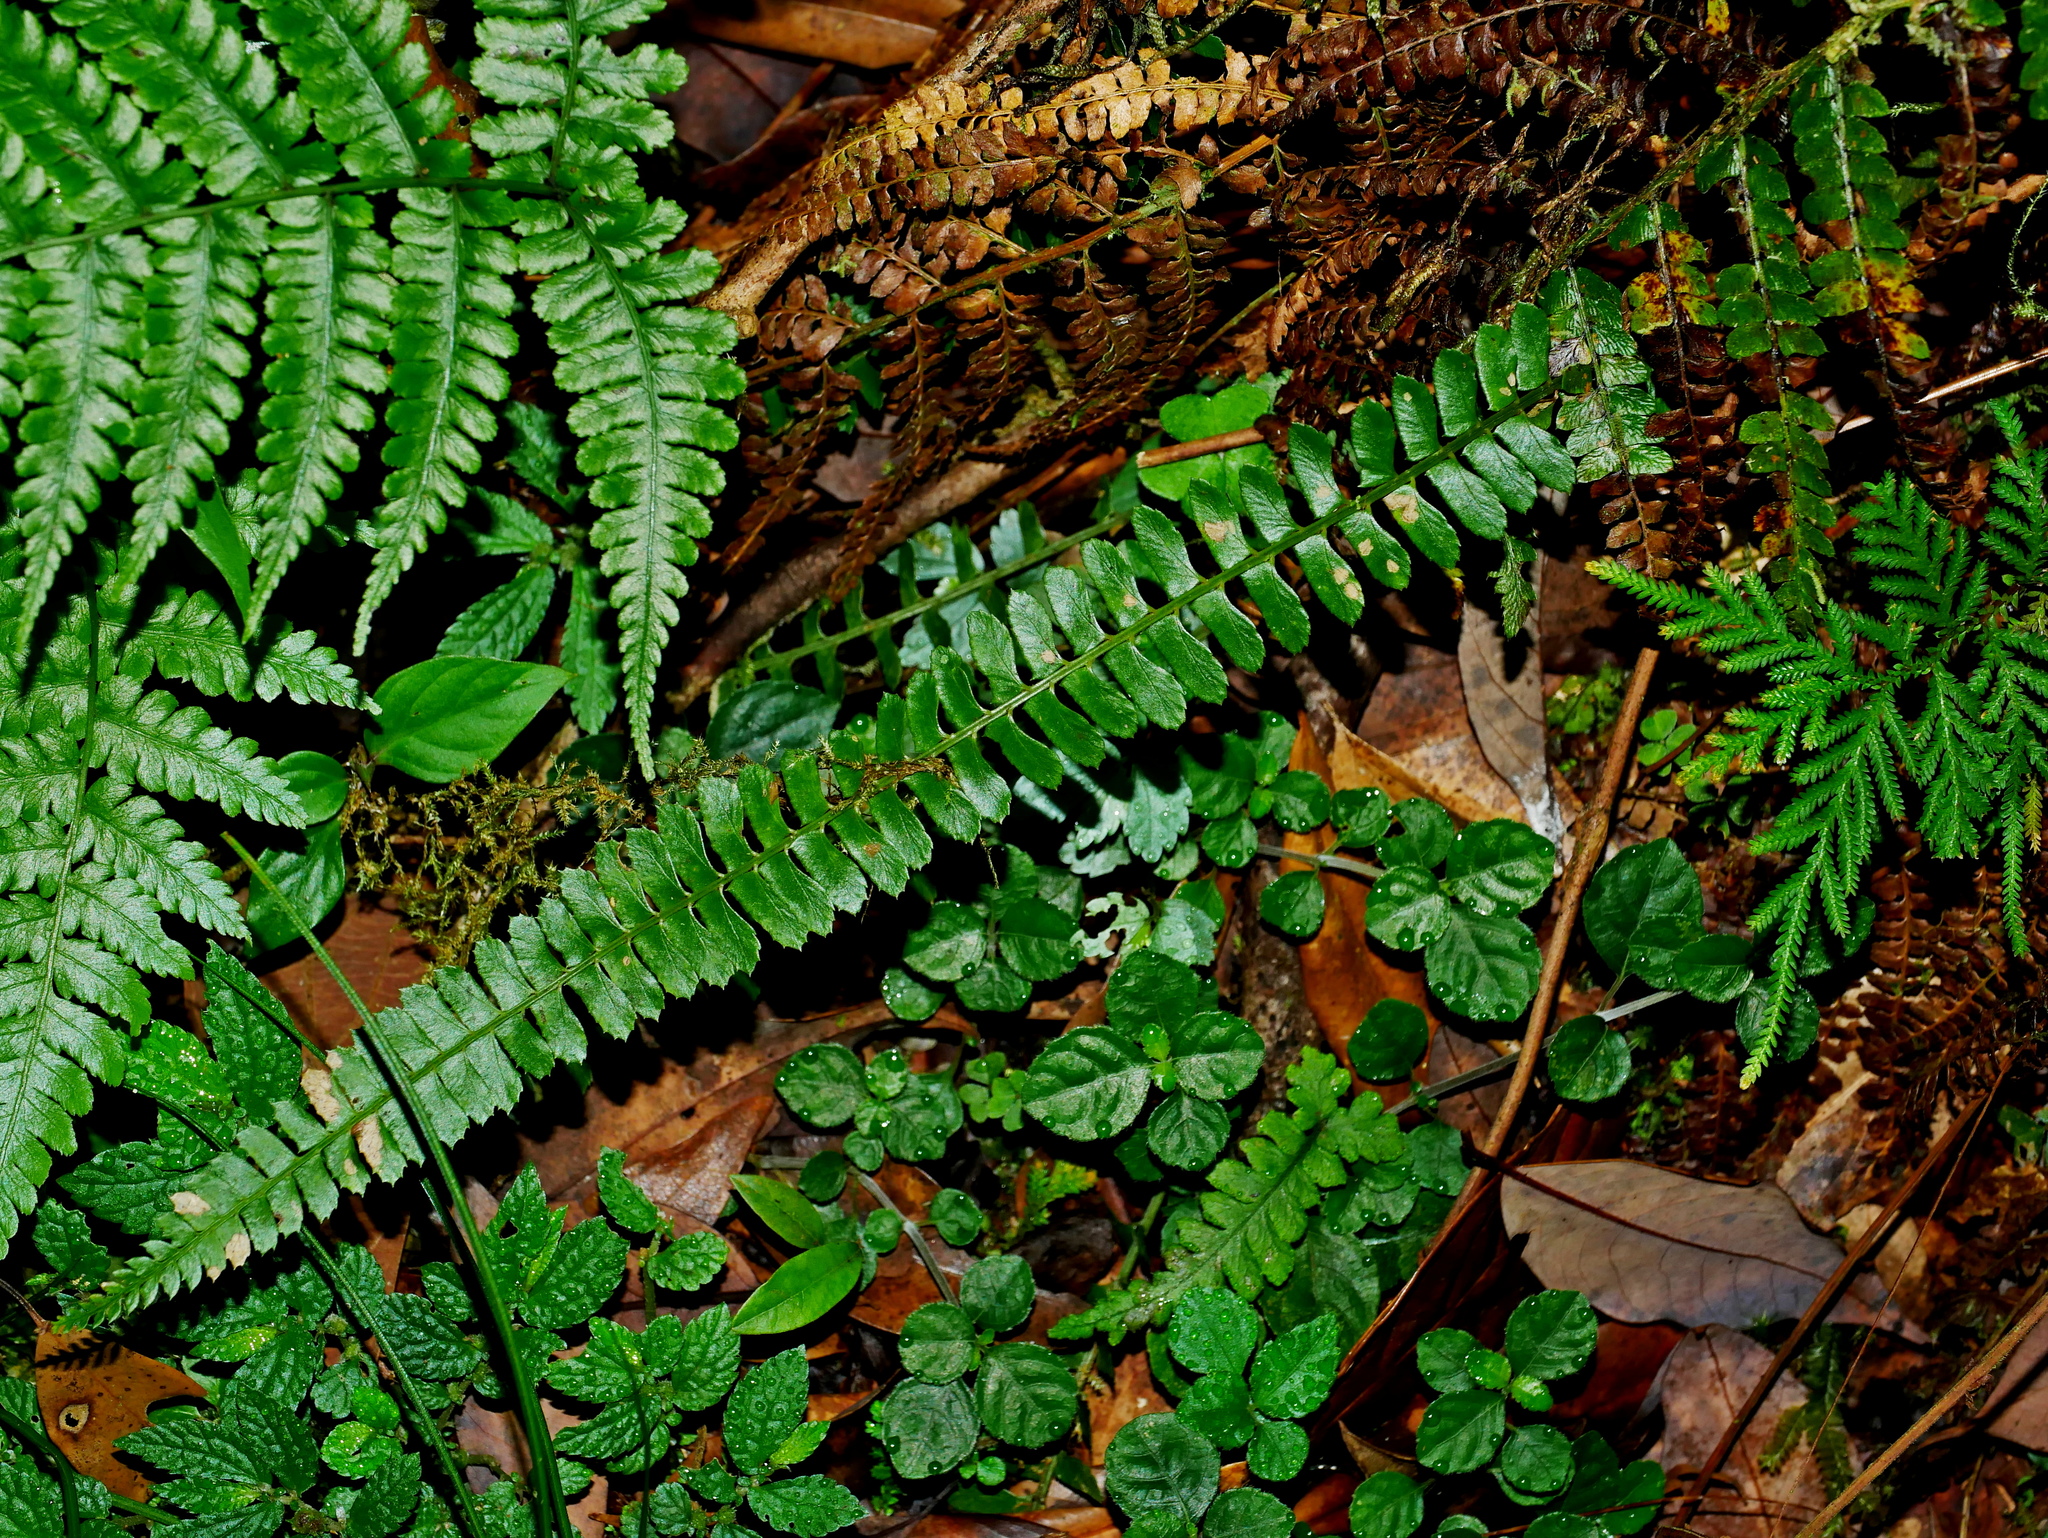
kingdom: Plantae
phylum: Tracheophyta
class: Polypodiopsida
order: Polypodiales
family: Dryopteridaceae
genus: Polystichum
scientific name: Polystichum deltodon
